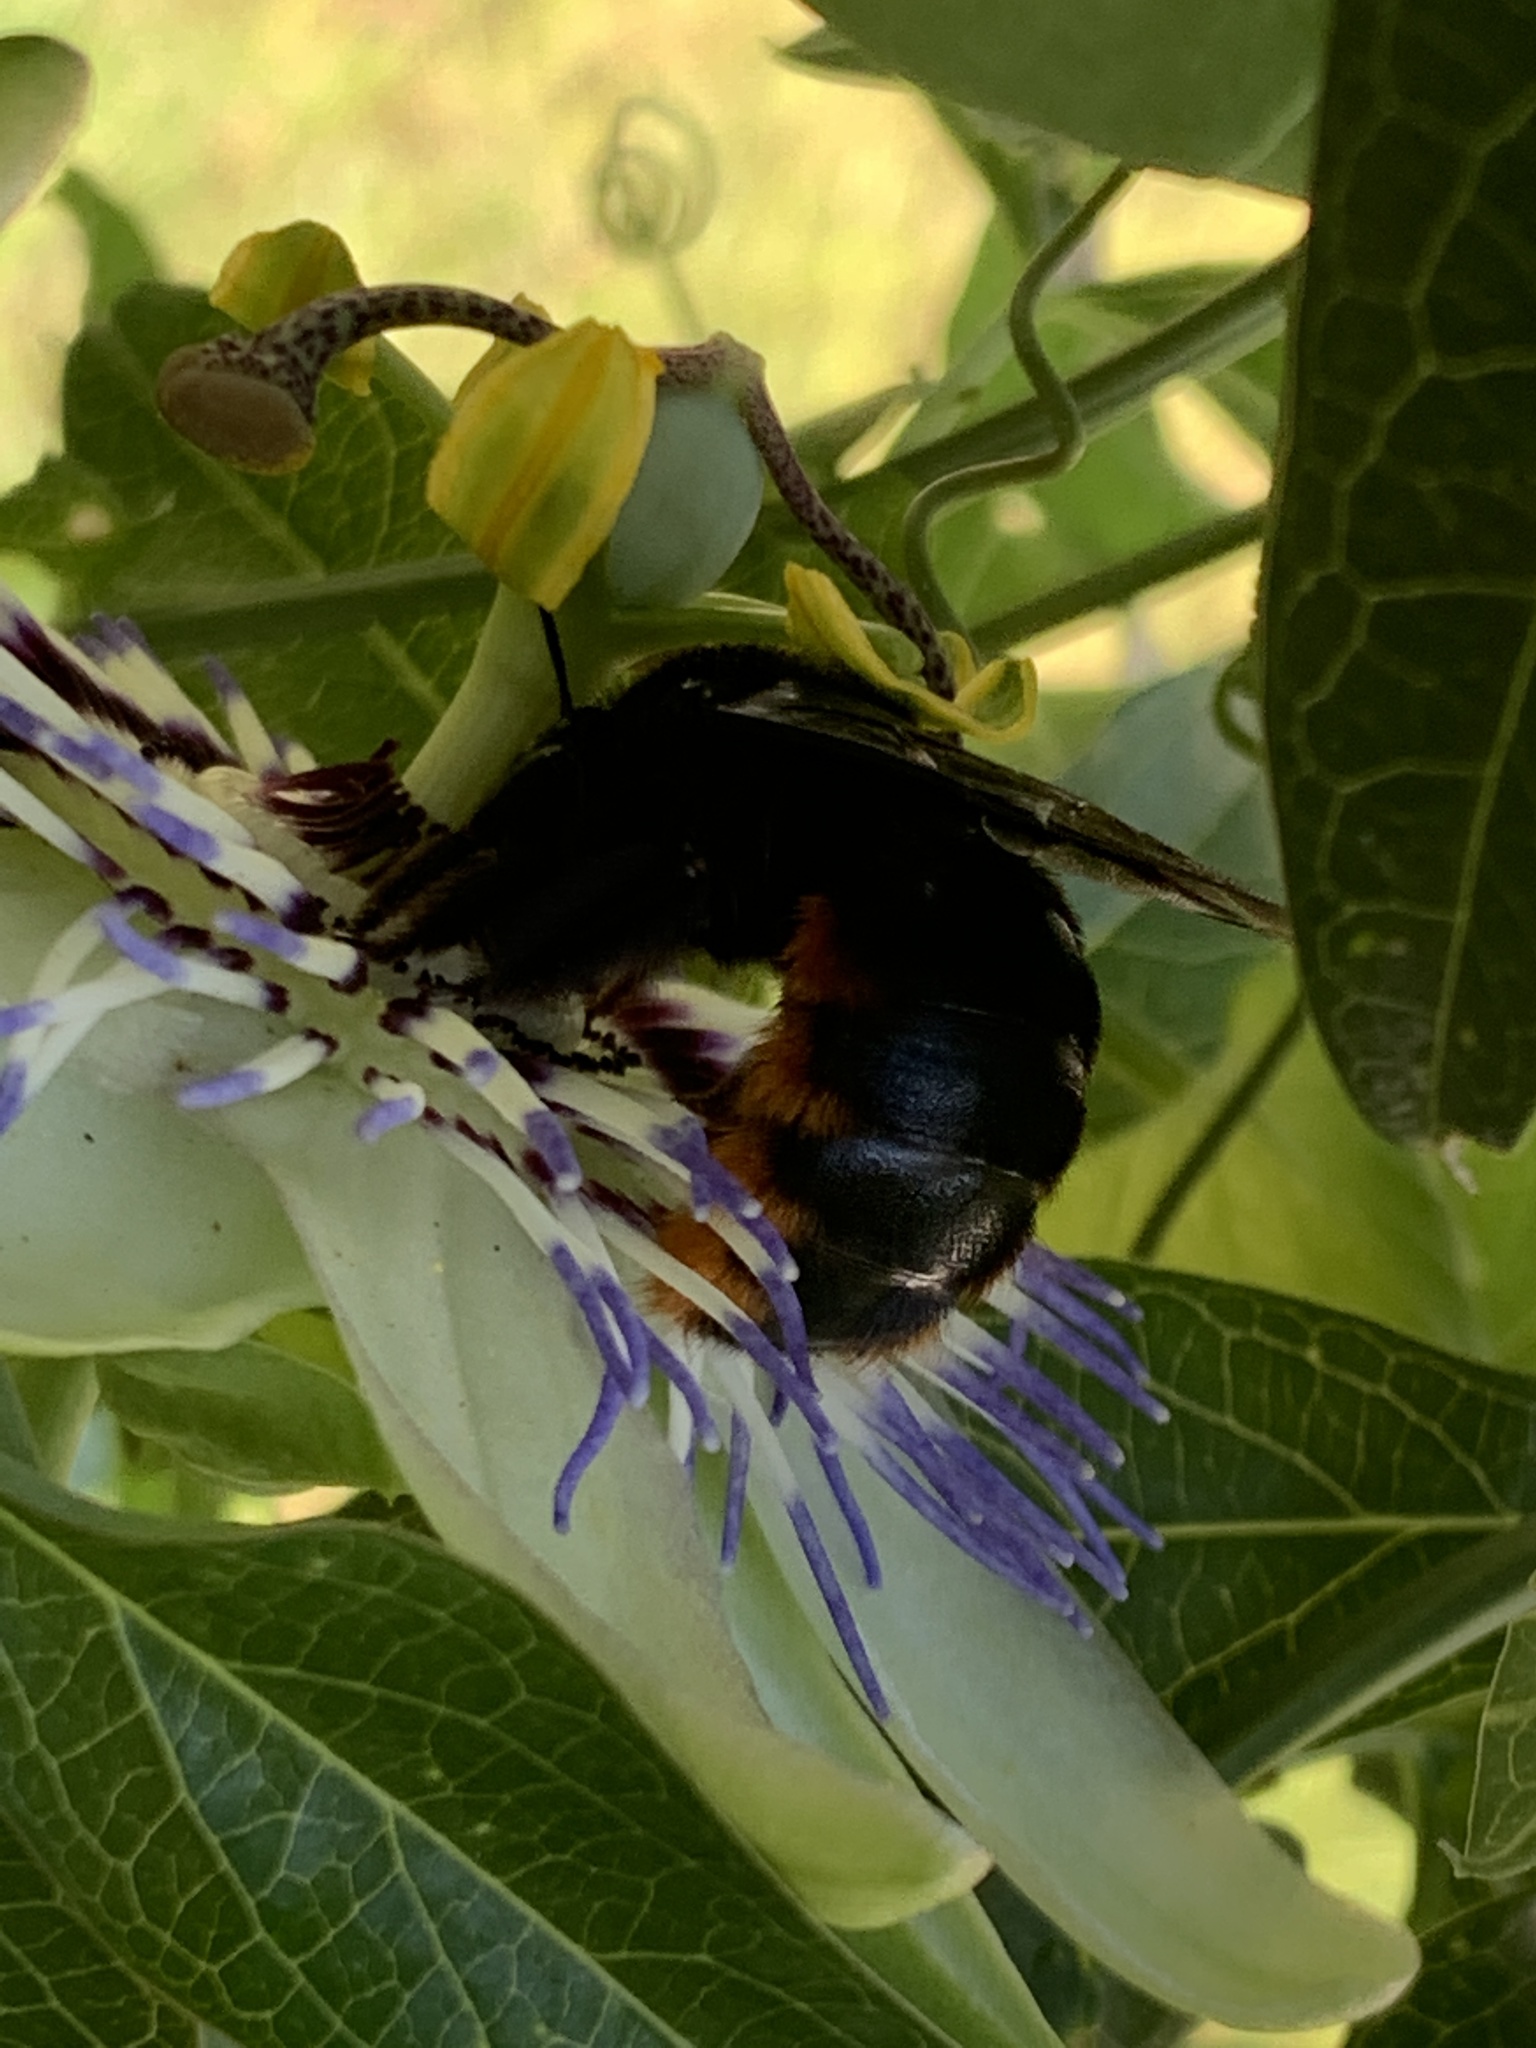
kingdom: Animalia
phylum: Arthropoda
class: Insecta
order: Hymenoptera
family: Apidae
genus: Xylocopa
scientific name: Xylocopa augusti
